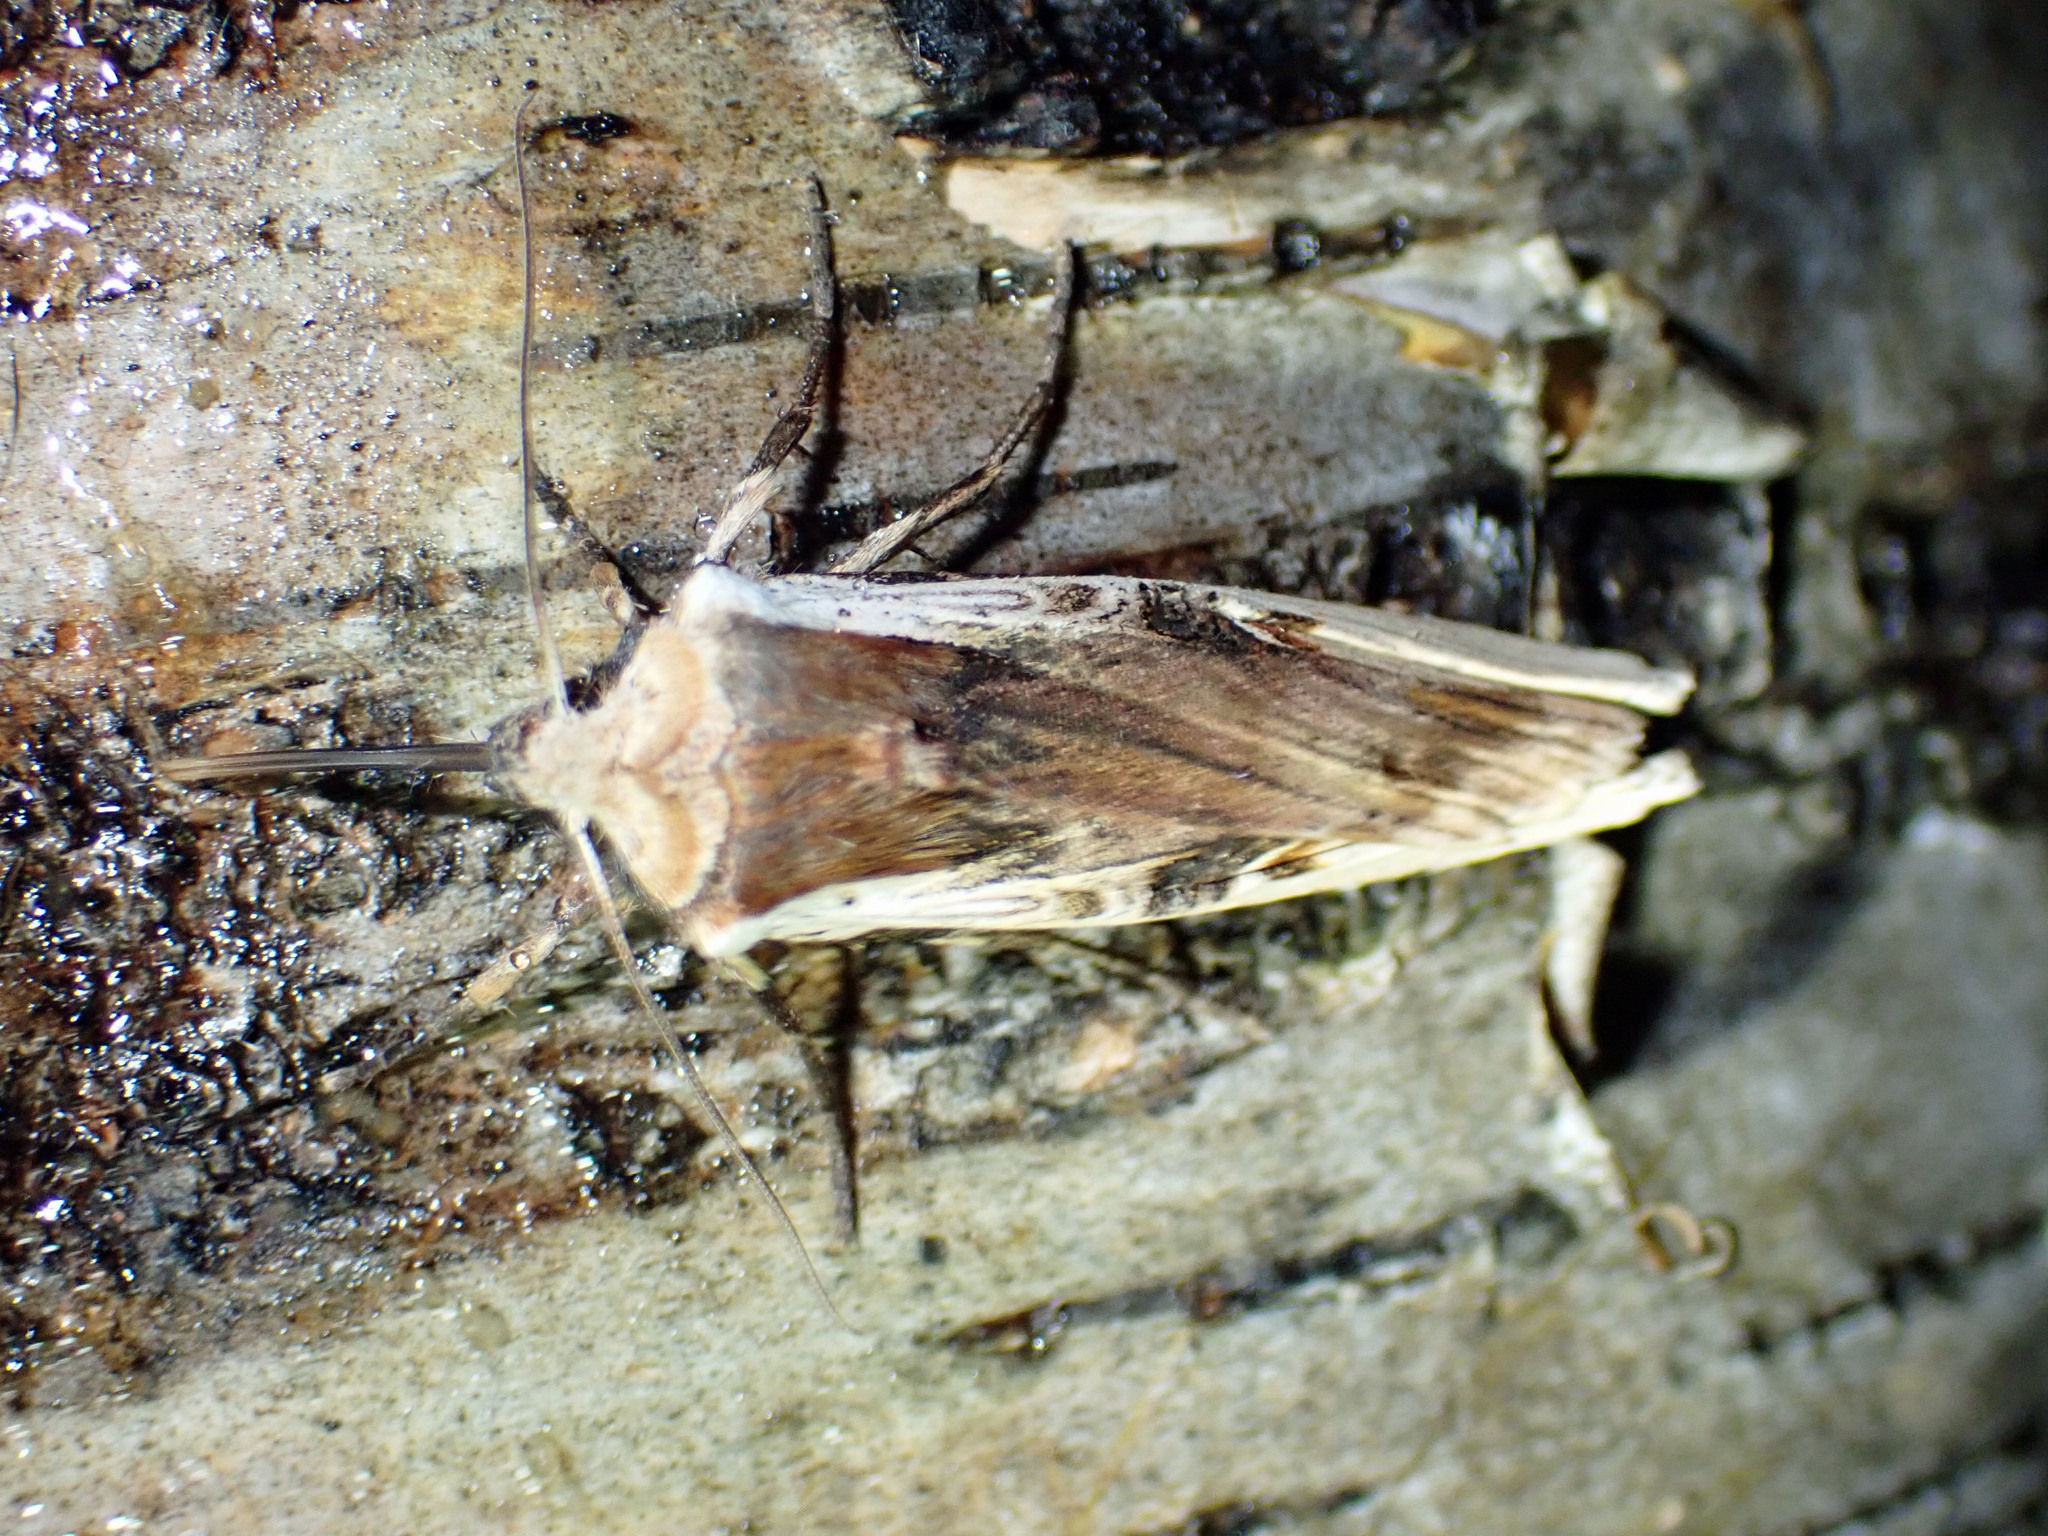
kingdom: Animalia
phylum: Arthropoda
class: Insecta
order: Lepidoptera
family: Noctuidae
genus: Xylena
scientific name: Xylena curvimacula
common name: Dot-and-dash swordgrass moth
